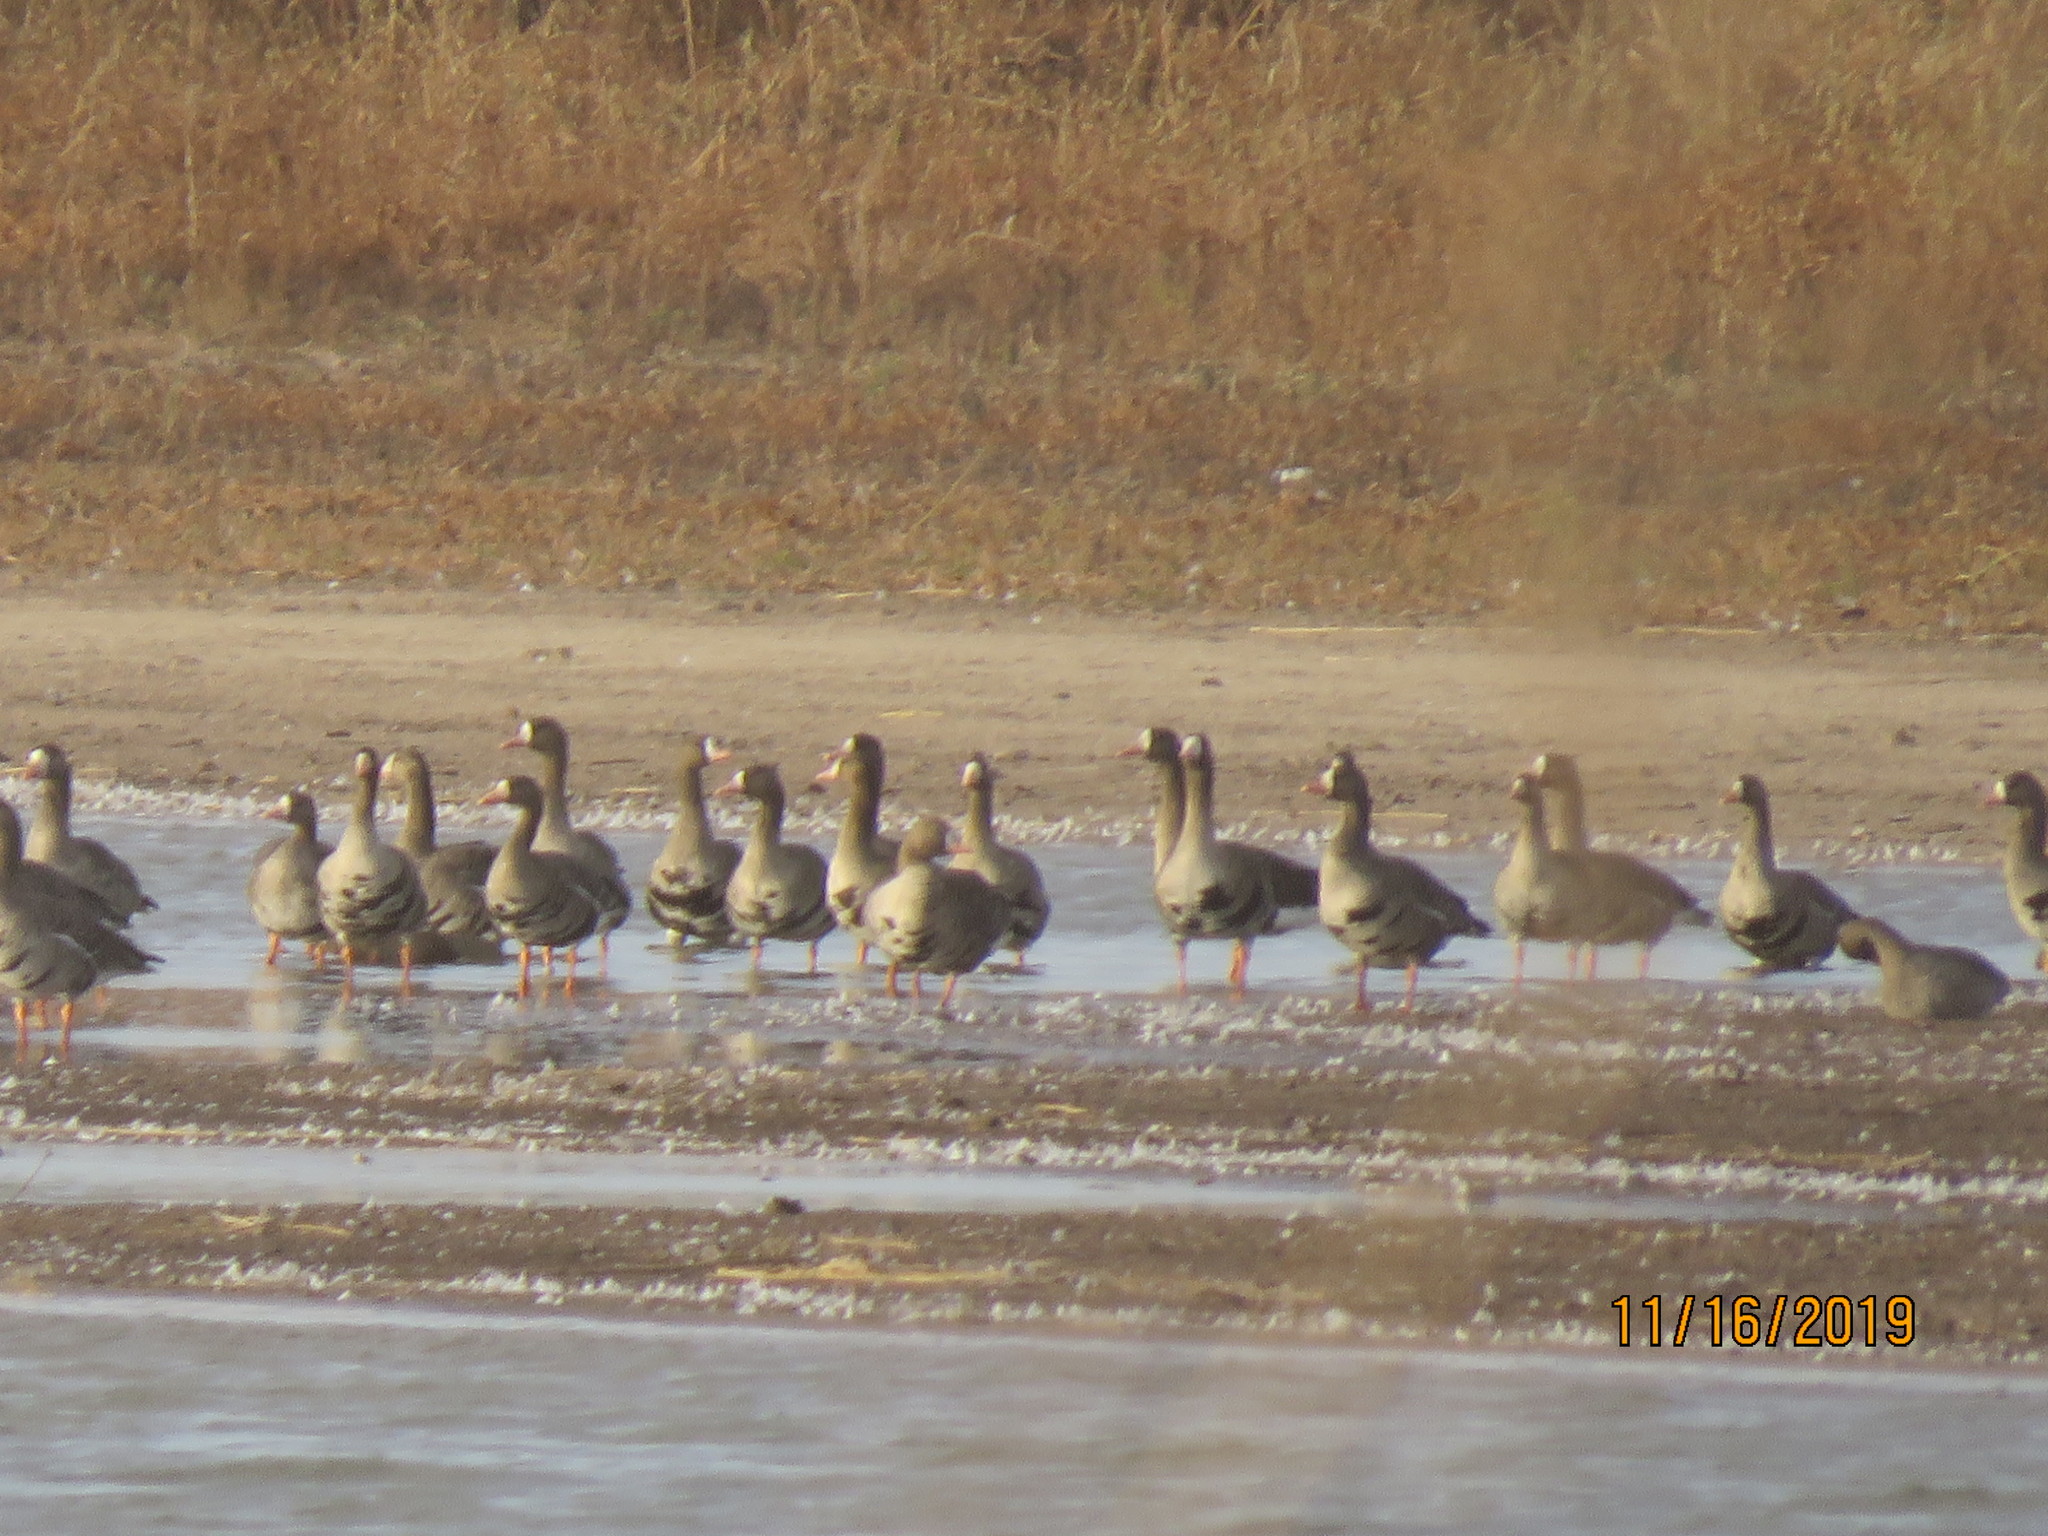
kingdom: Animalia
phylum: Chordata
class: Aves
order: Anseriformes
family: Anatidae
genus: Anser
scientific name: Anser albifrons
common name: Greater white-fronted goose
